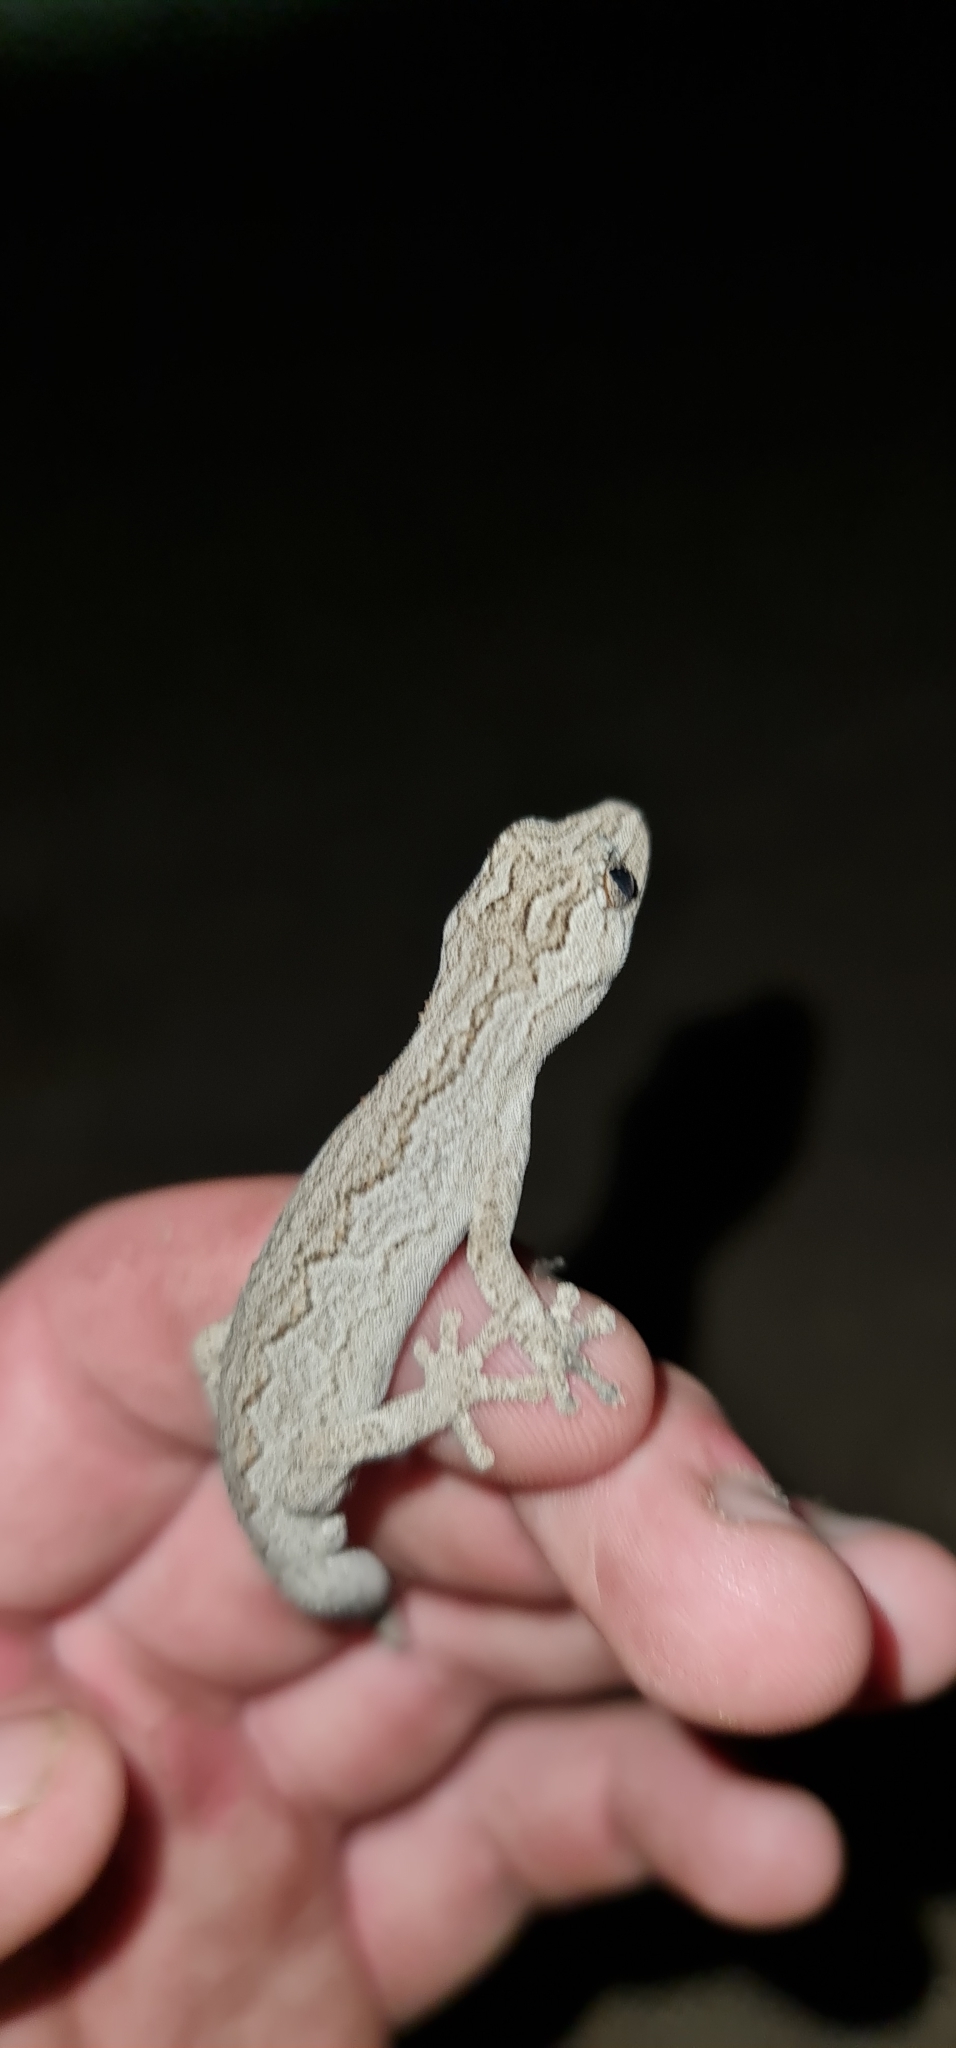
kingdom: Animalia
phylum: Chordata
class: Squamata
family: Diplodactylidae
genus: Strophurus
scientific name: Strophurus intermedius
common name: Eastern spiny-tailed gecko
